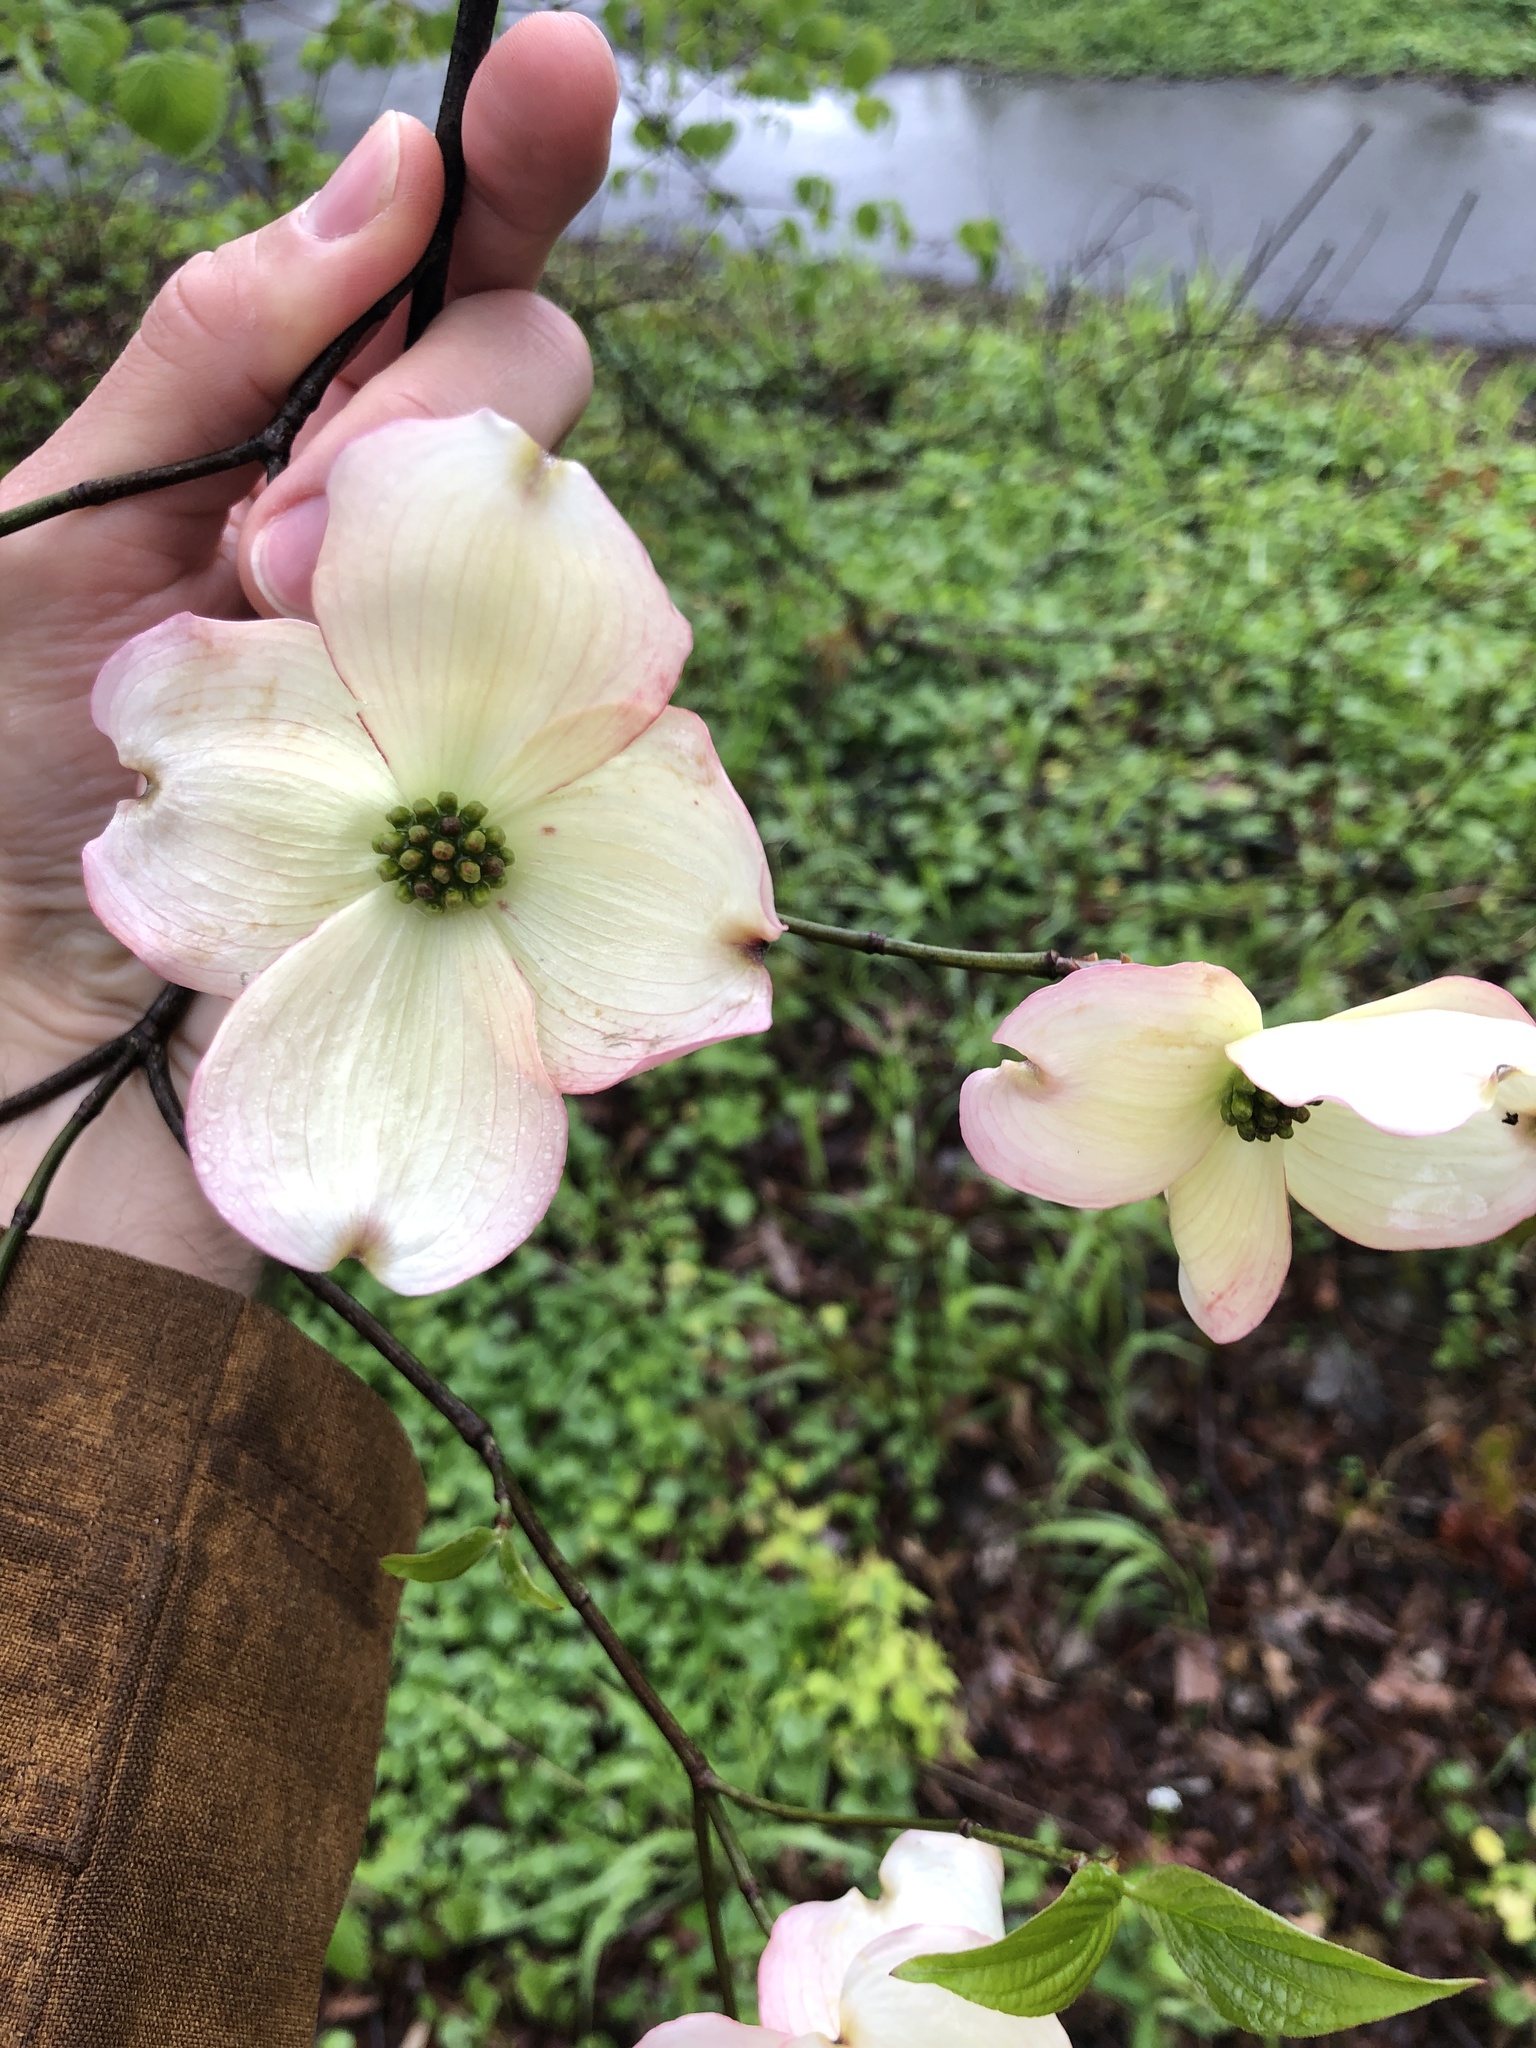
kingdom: Plantae
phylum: Tracheophyta
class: Magnoliopsida
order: Cornales
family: Cornaceae
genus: Cornus
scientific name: Cornus florida
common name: Flowering dogwood
